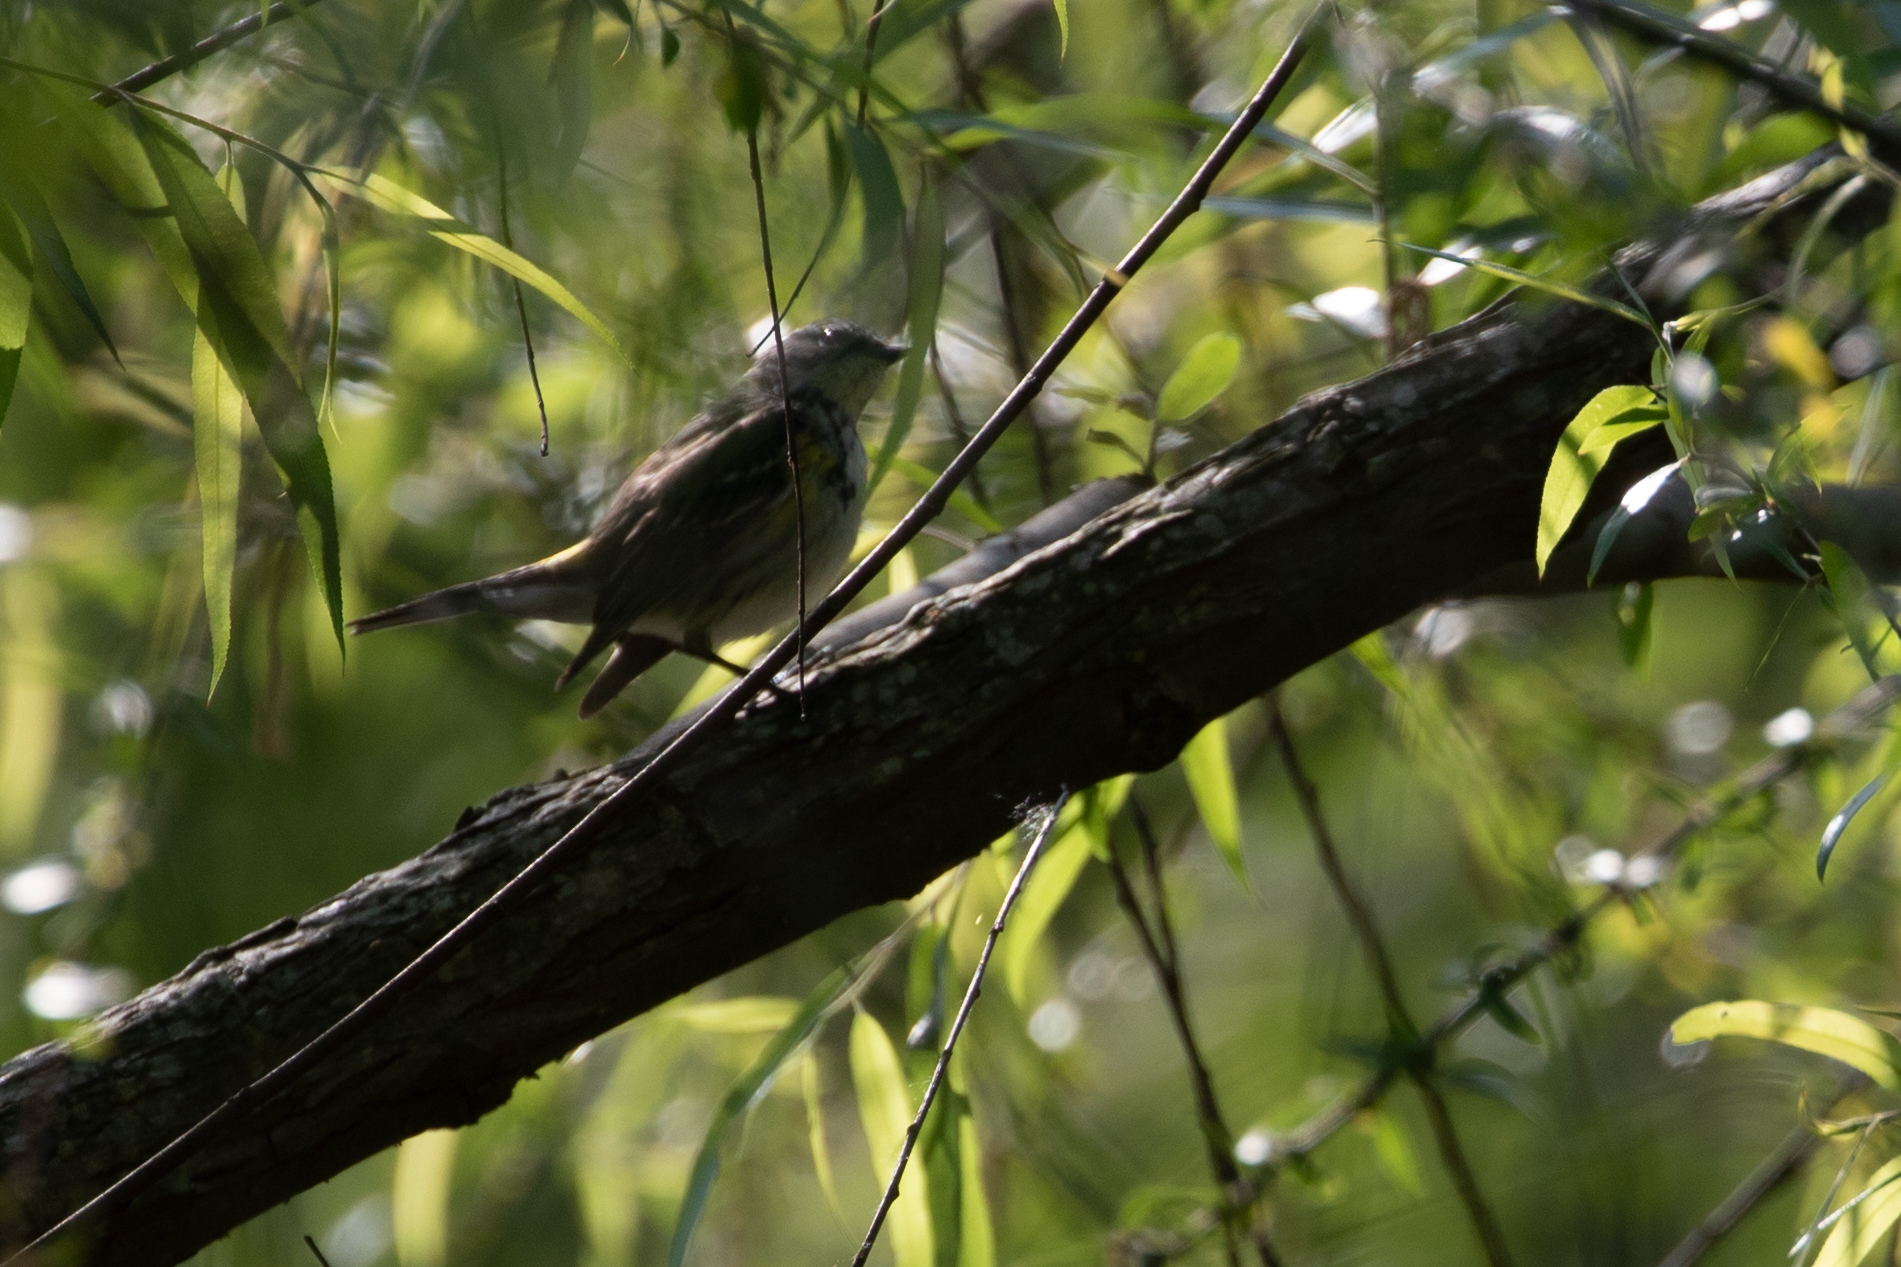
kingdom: Animalia
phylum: Chordata
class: Aves
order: Passeriformes
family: Parulidae
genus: Setophaga
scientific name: Setophaga coronata
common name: Myrtle warbler
